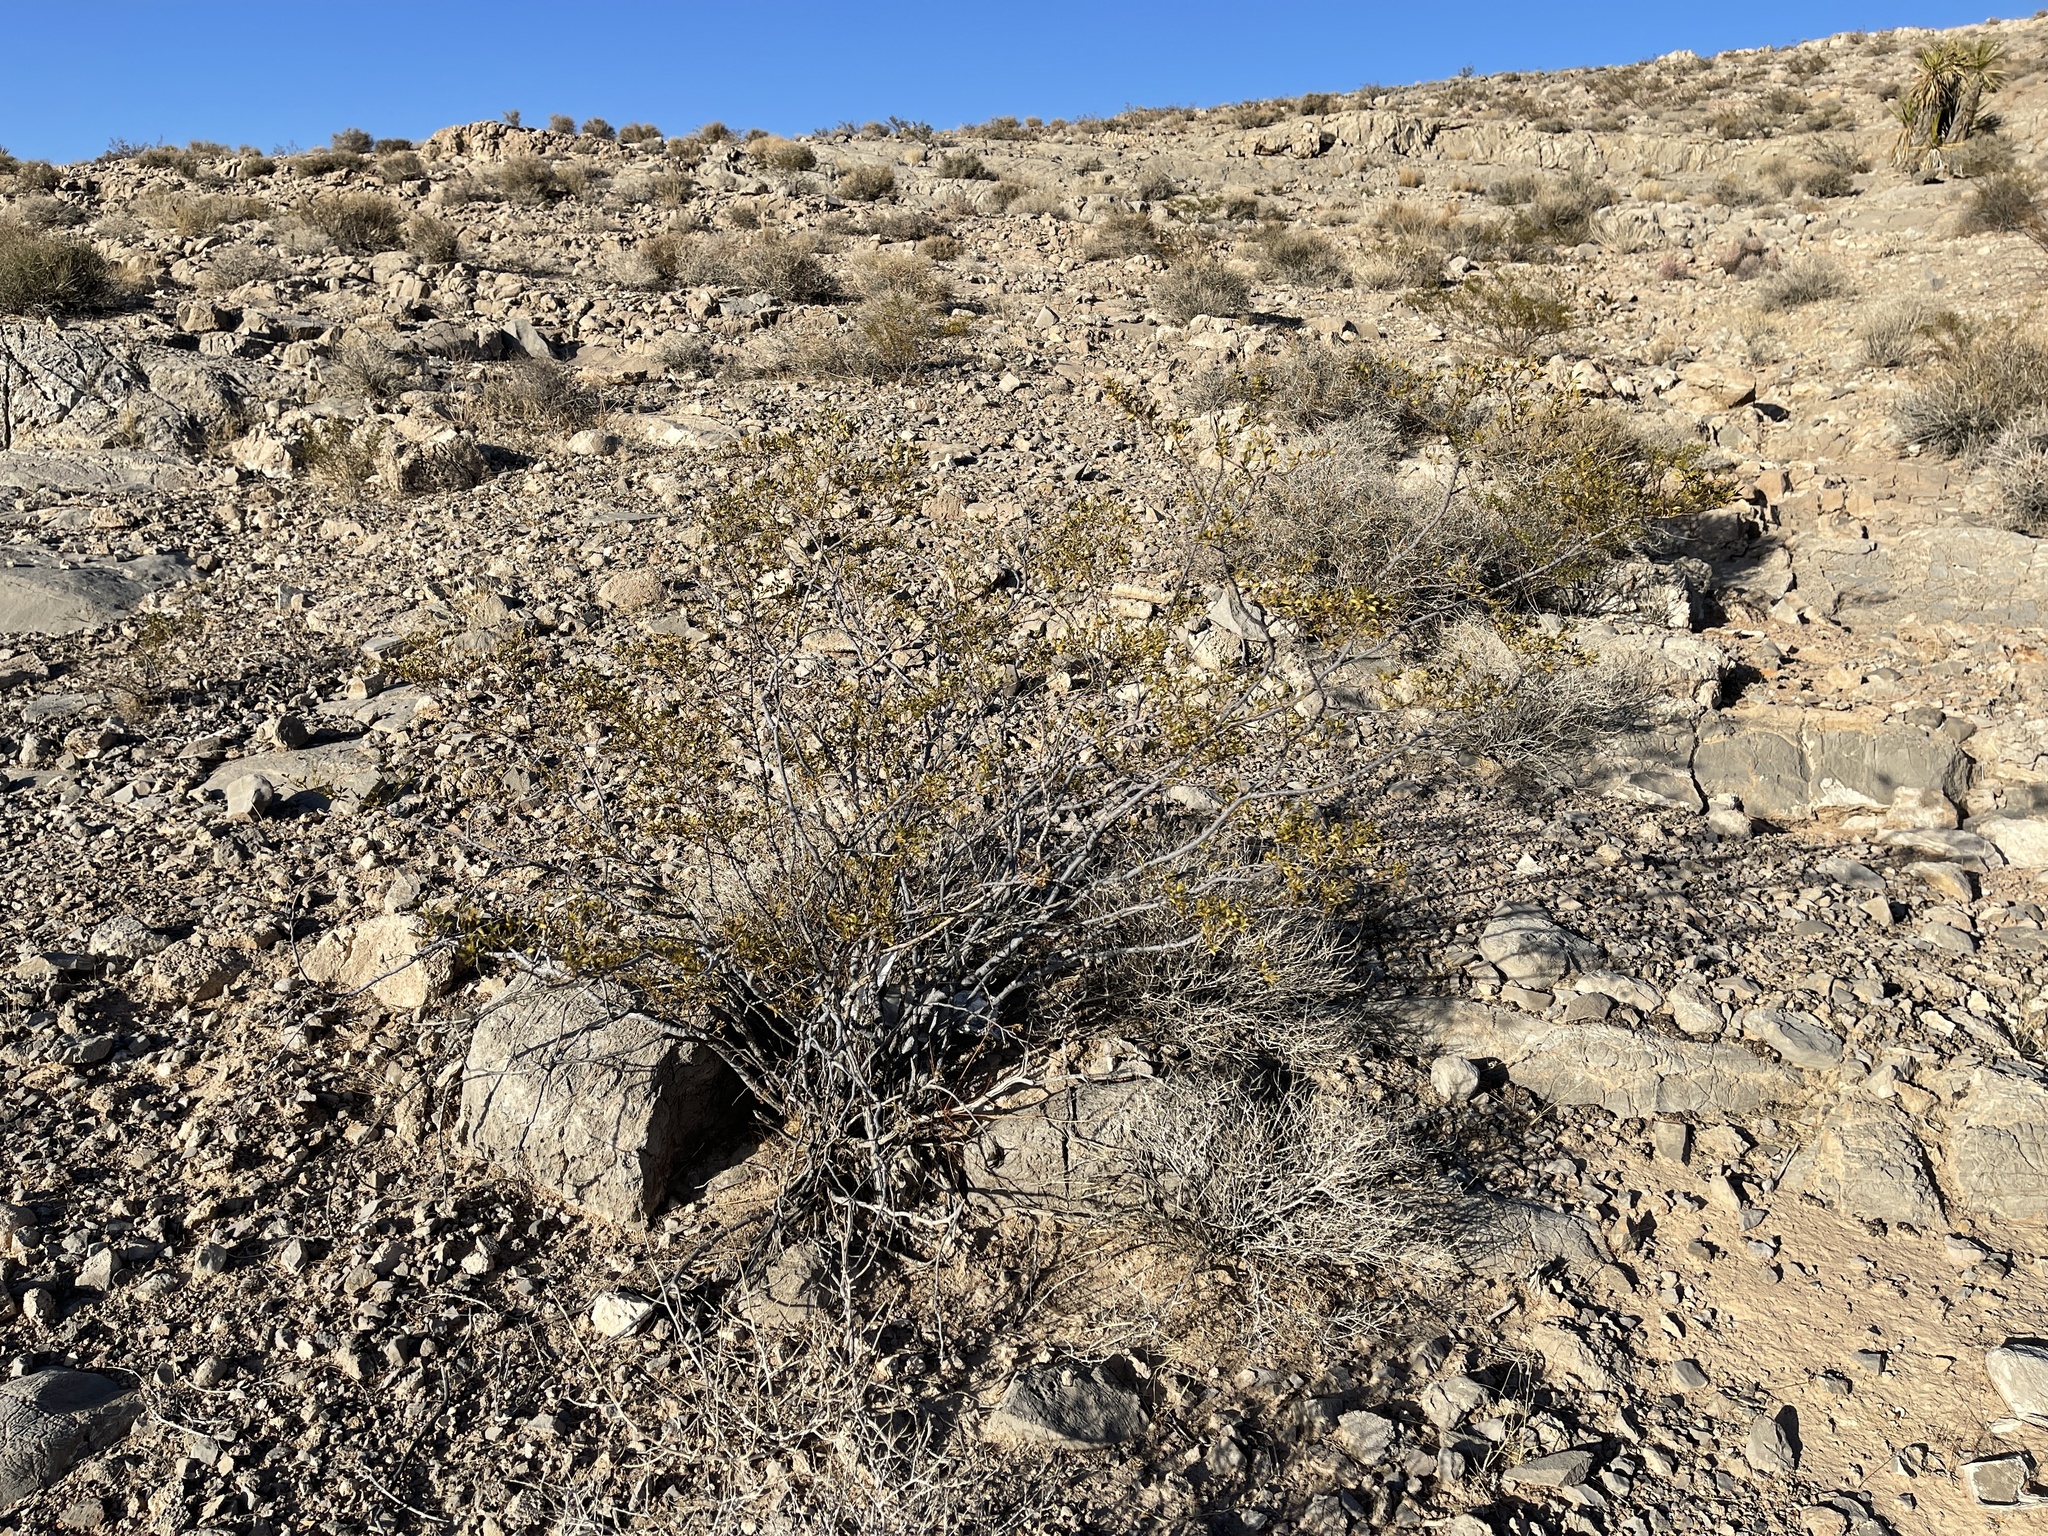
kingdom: Plantae
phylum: Tracheophyta
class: Magnoliopsida
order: Zygophyllales
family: Zygophyllaceae
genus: Larrea
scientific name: Larrea tridentata
